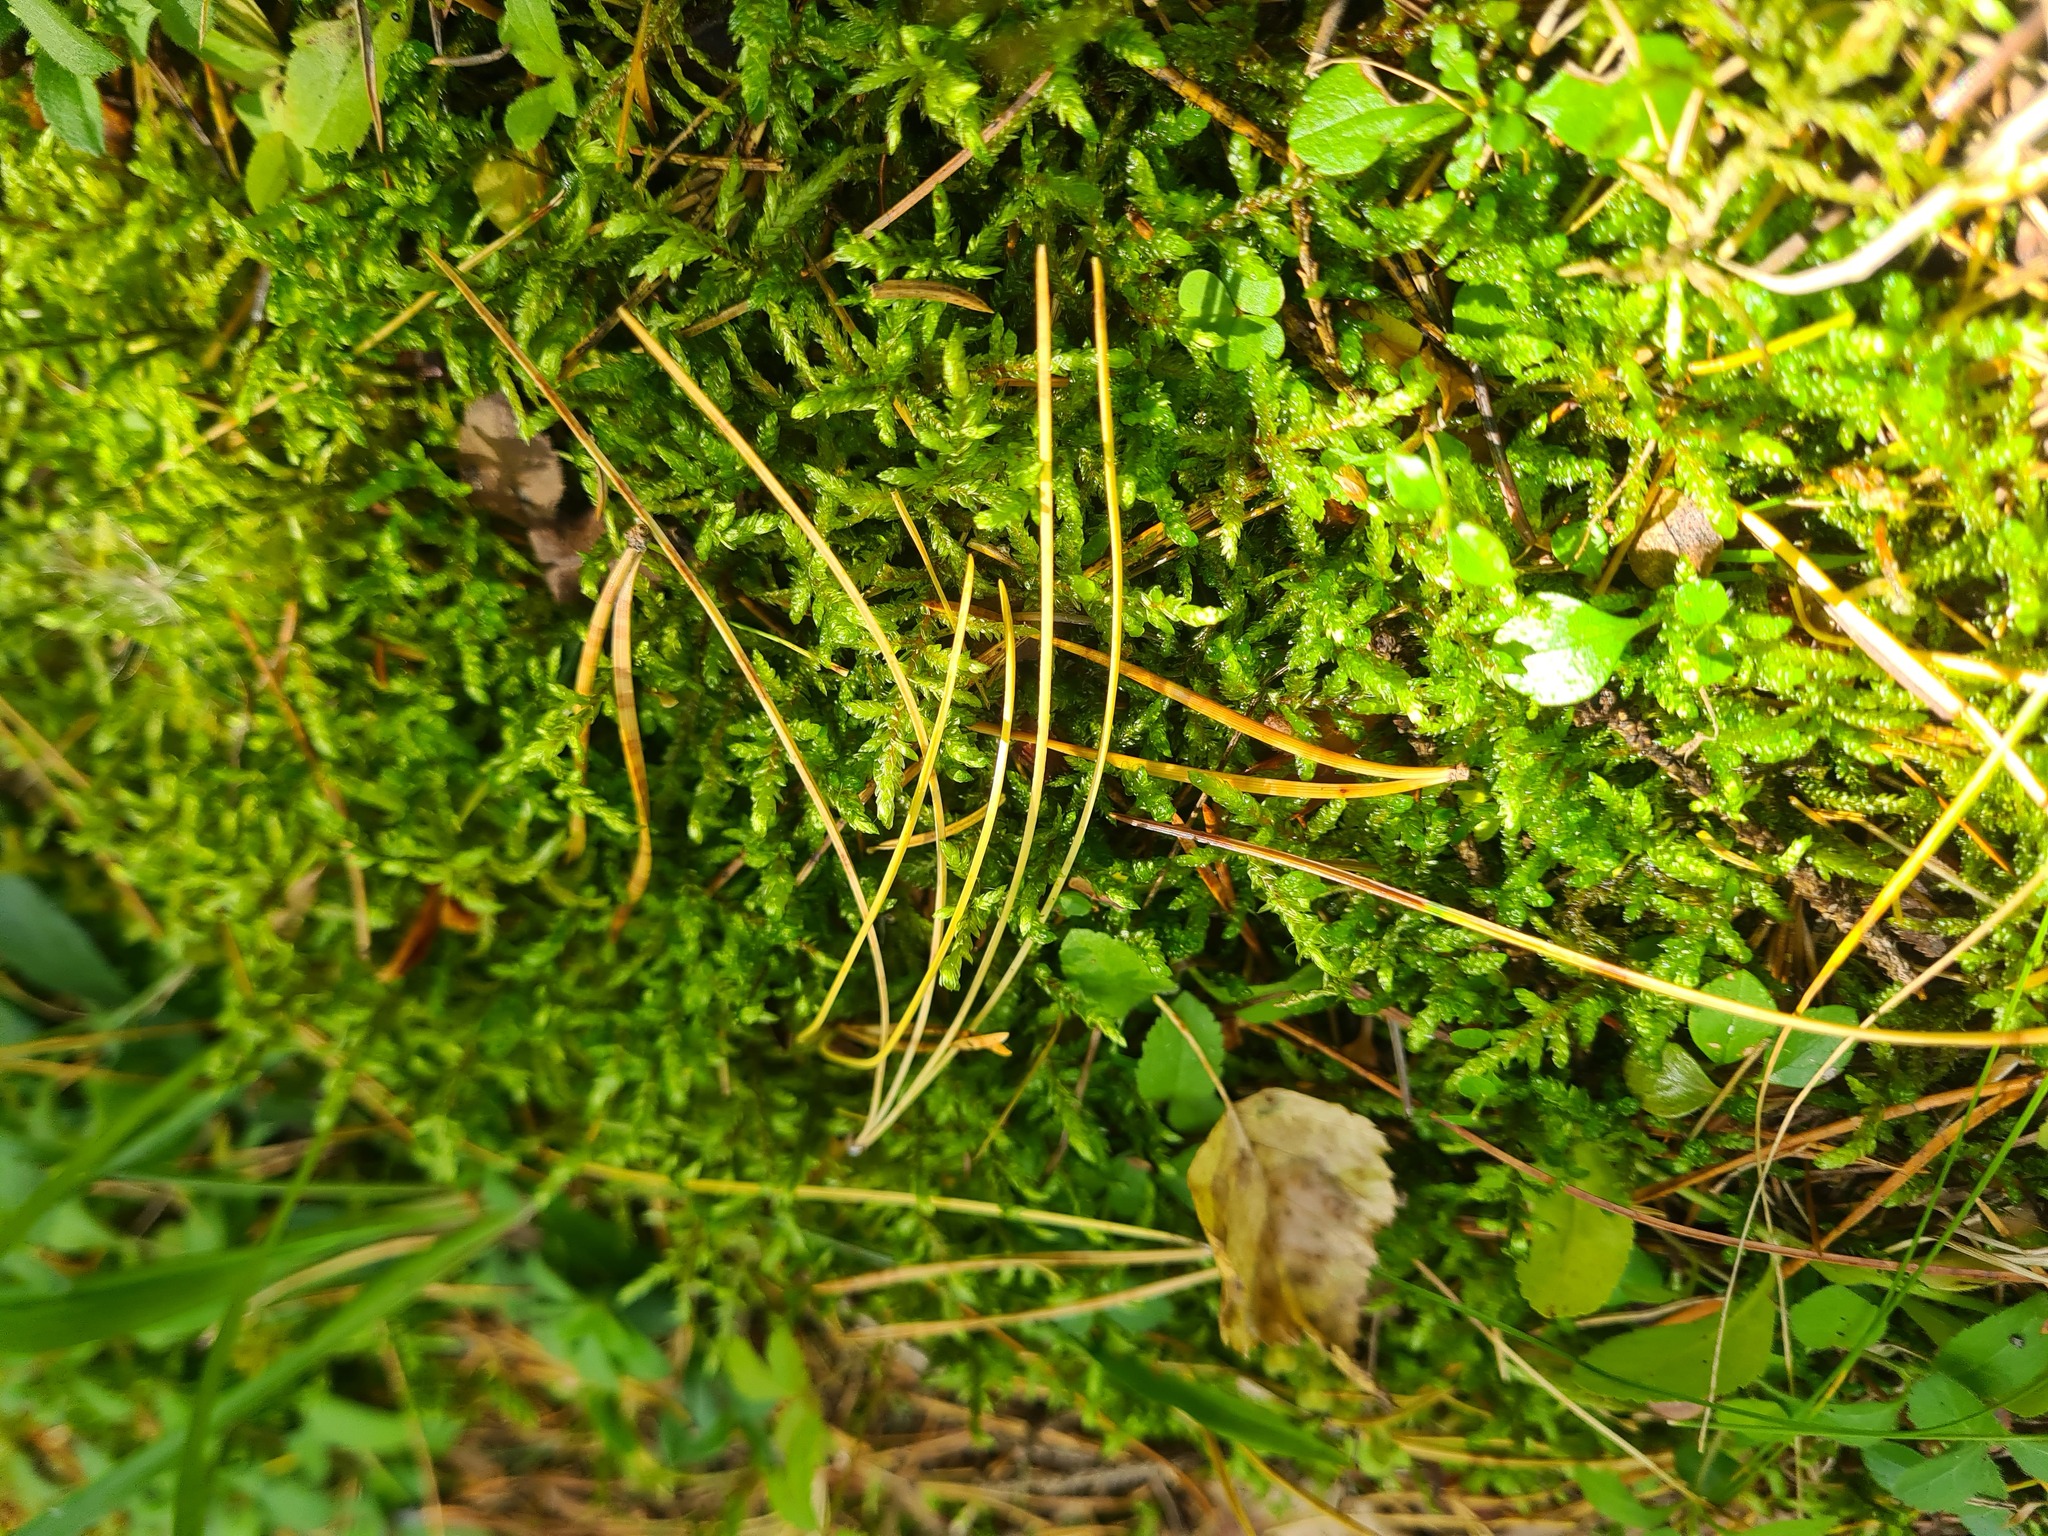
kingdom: Plantae
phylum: Bryophyta
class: Bryopsida
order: Hypnales
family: Hylocomiaceae
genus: Pleurozium
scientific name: Pleurozium schreberi
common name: Red-stemmed feather moss
